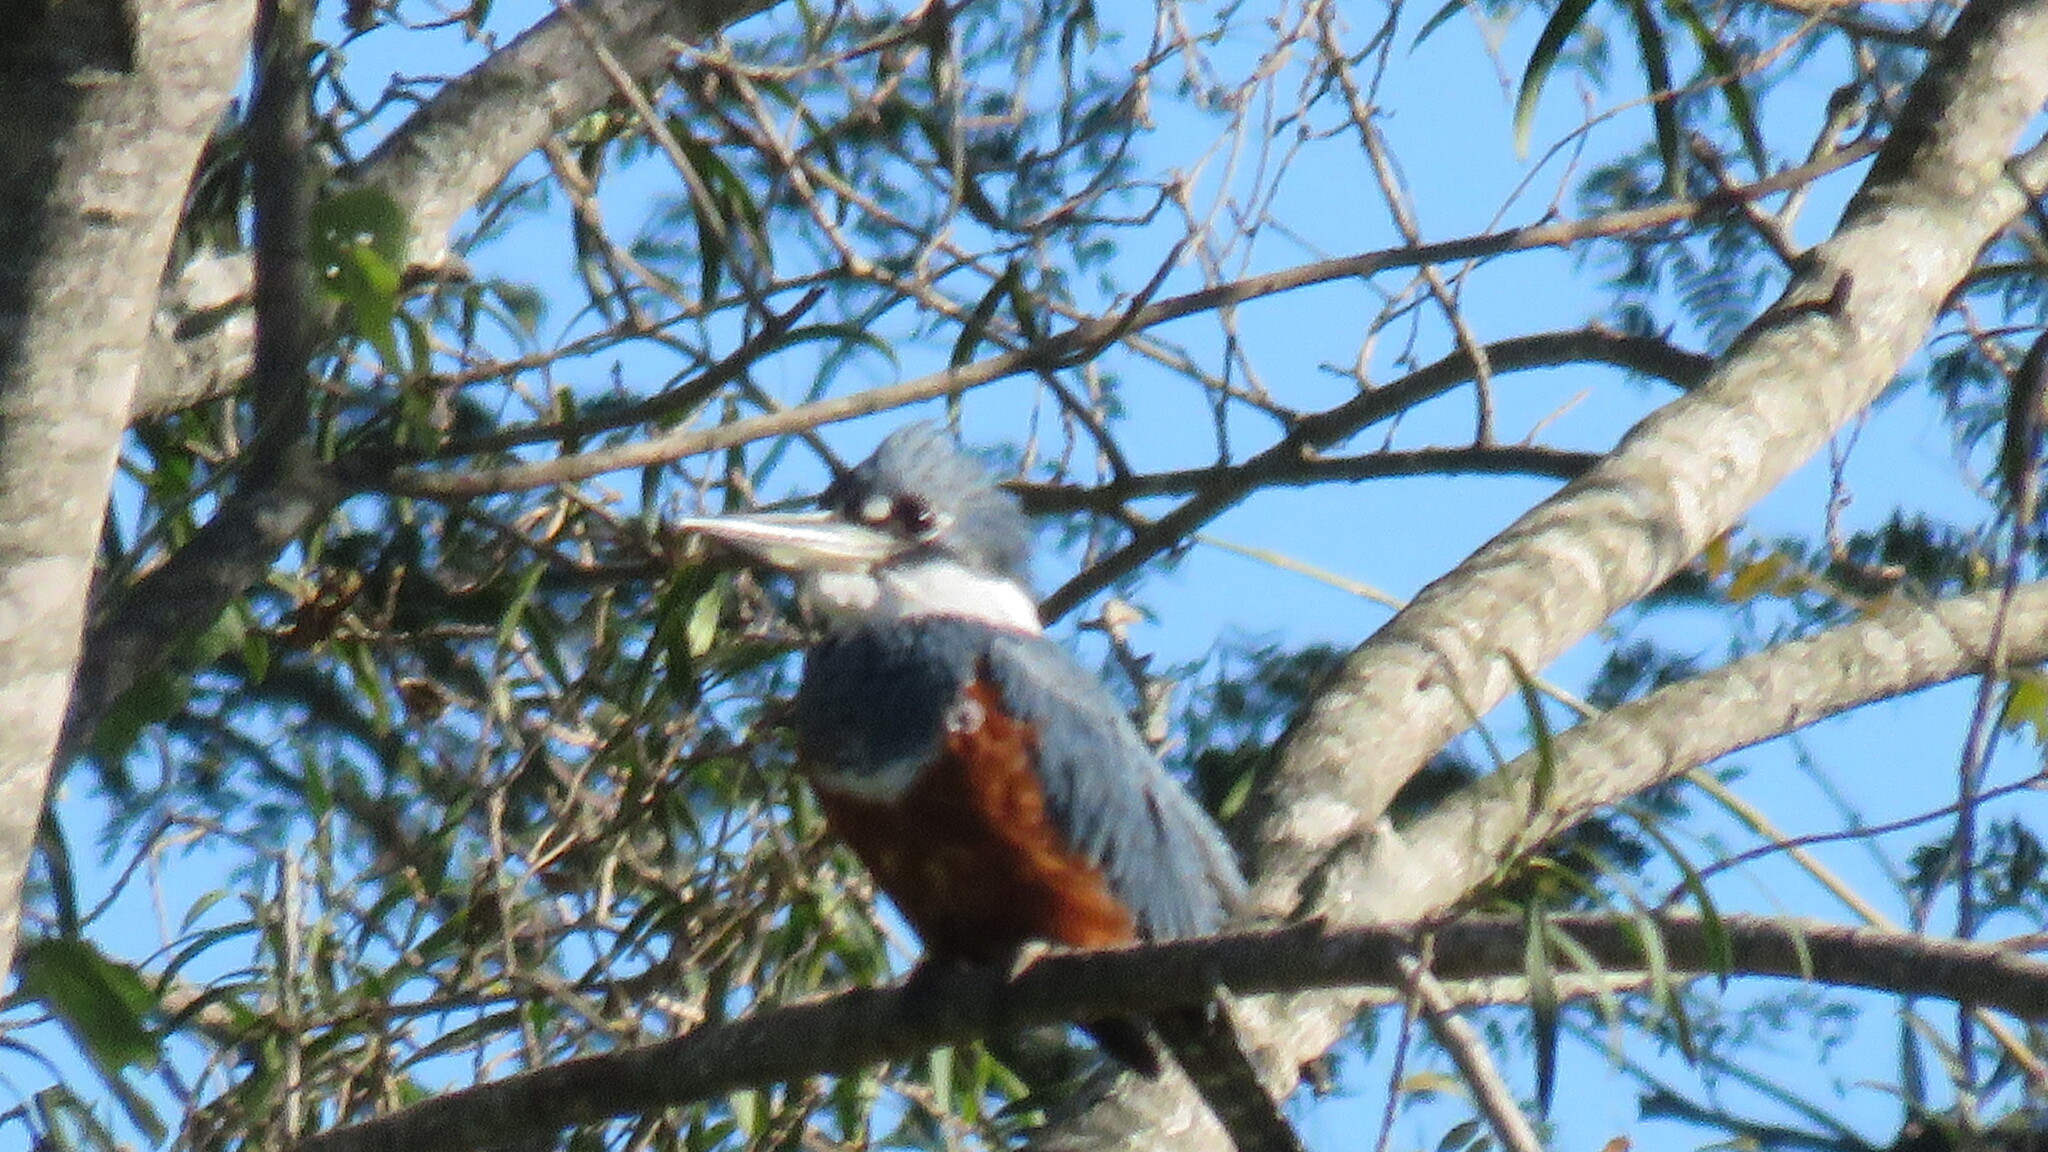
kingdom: Animalia
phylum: Chordata
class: Aves
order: Coraciiformes
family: Alcedinidae
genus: Megaceryle
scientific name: Megaceryle torquata
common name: Ringed kingfisher
